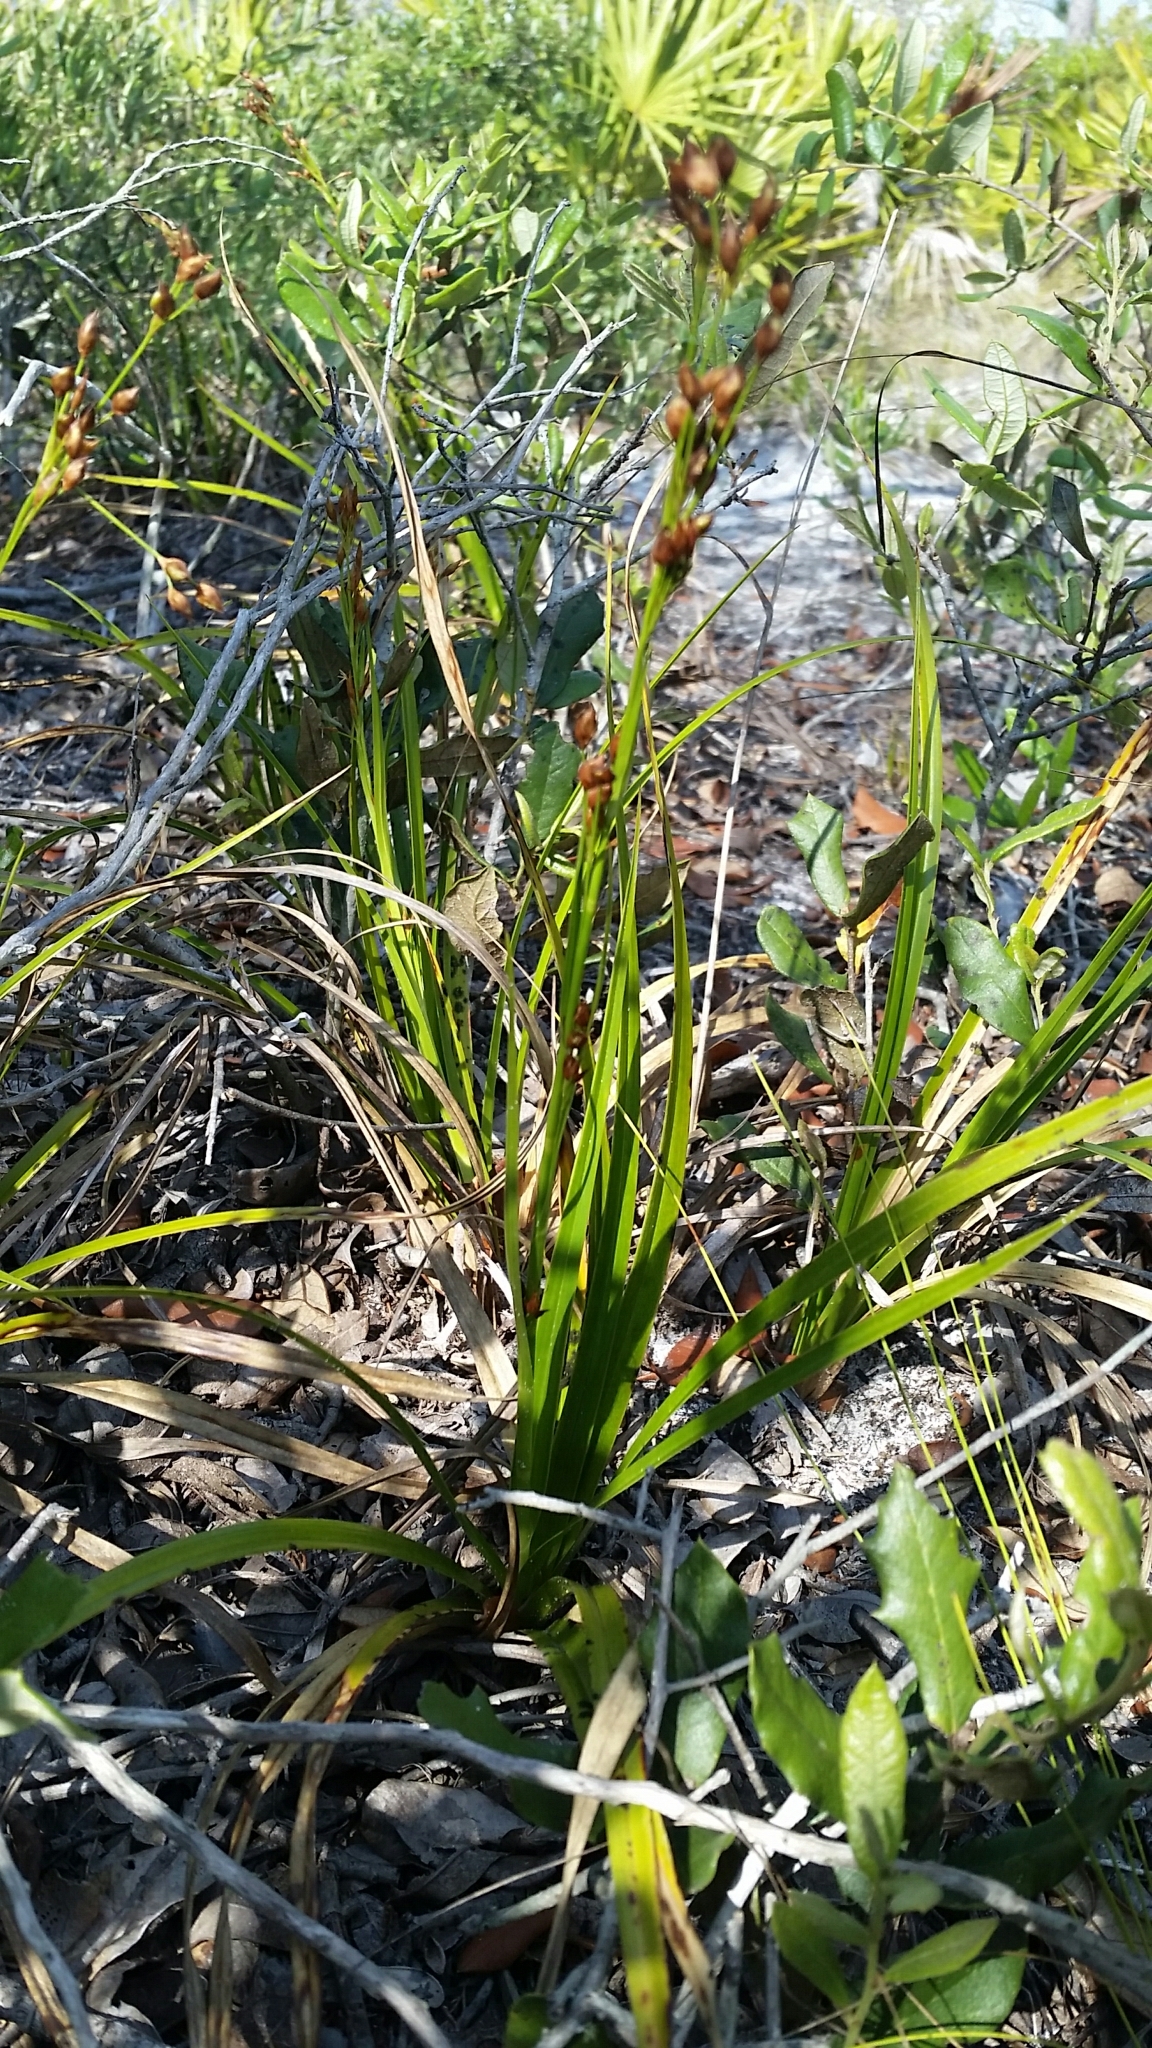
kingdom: Plantae
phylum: Tracheophyta
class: Liliopsida
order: Poales
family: Cyperaceae
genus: Rhynchospora
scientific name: Rhynchospora megalocarpa
